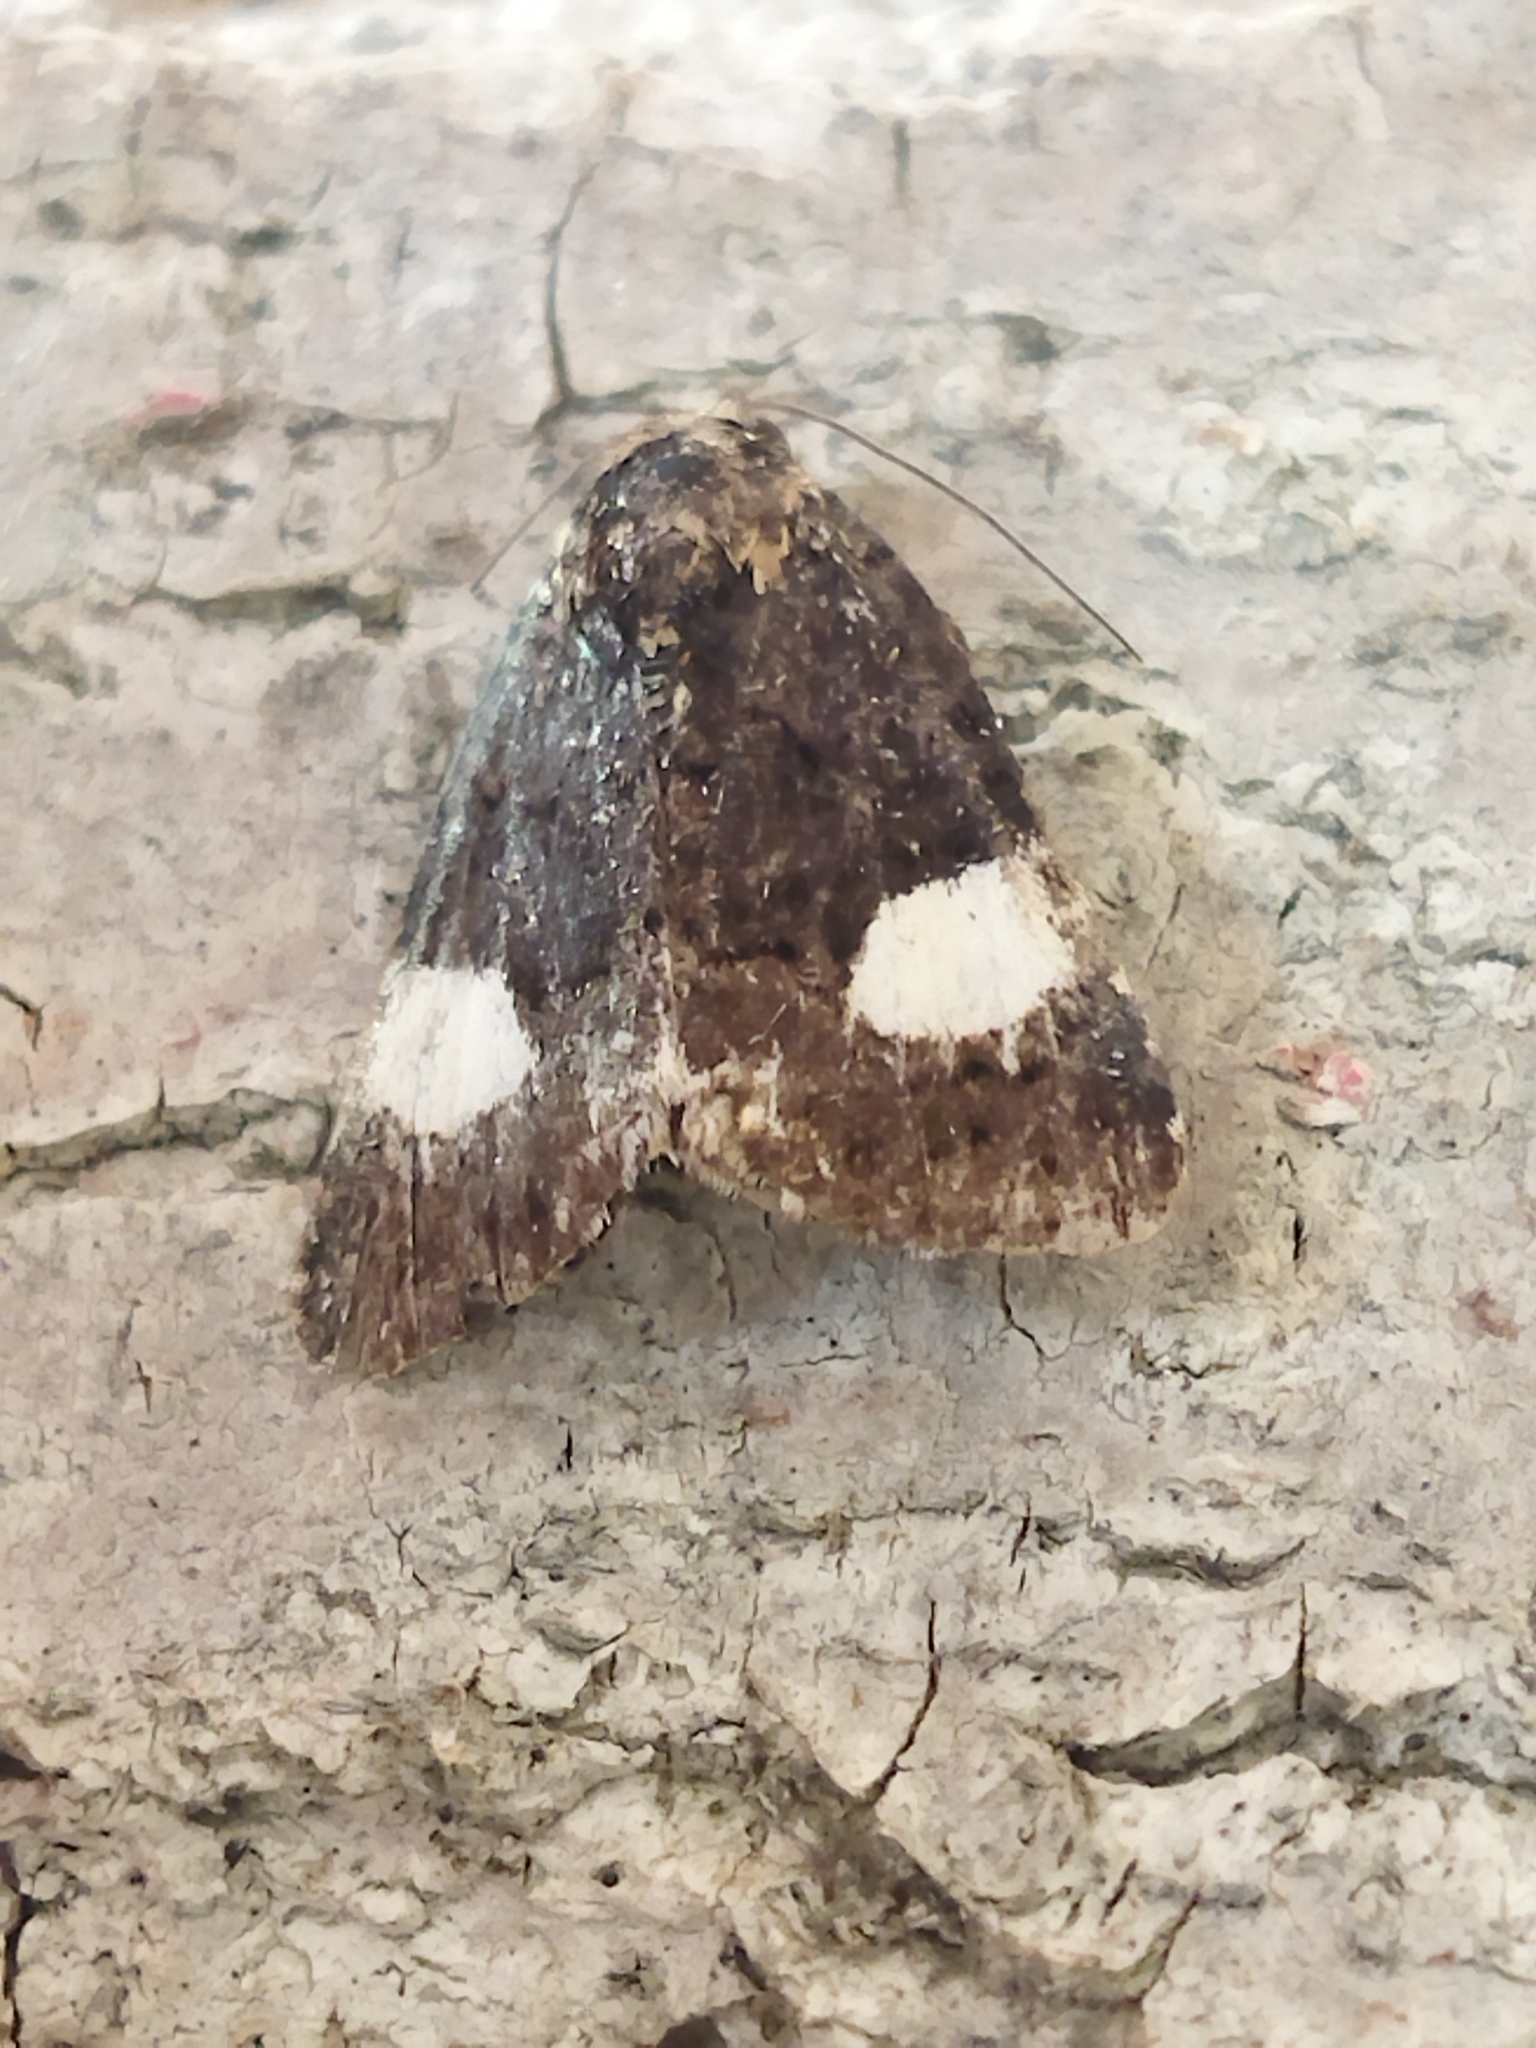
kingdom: Animalia
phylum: Arthropoda
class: Insecta
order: Lepidoptera
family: Erebidae
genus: Tyta
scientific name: Tyta luctuosa
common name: Four-spotted
